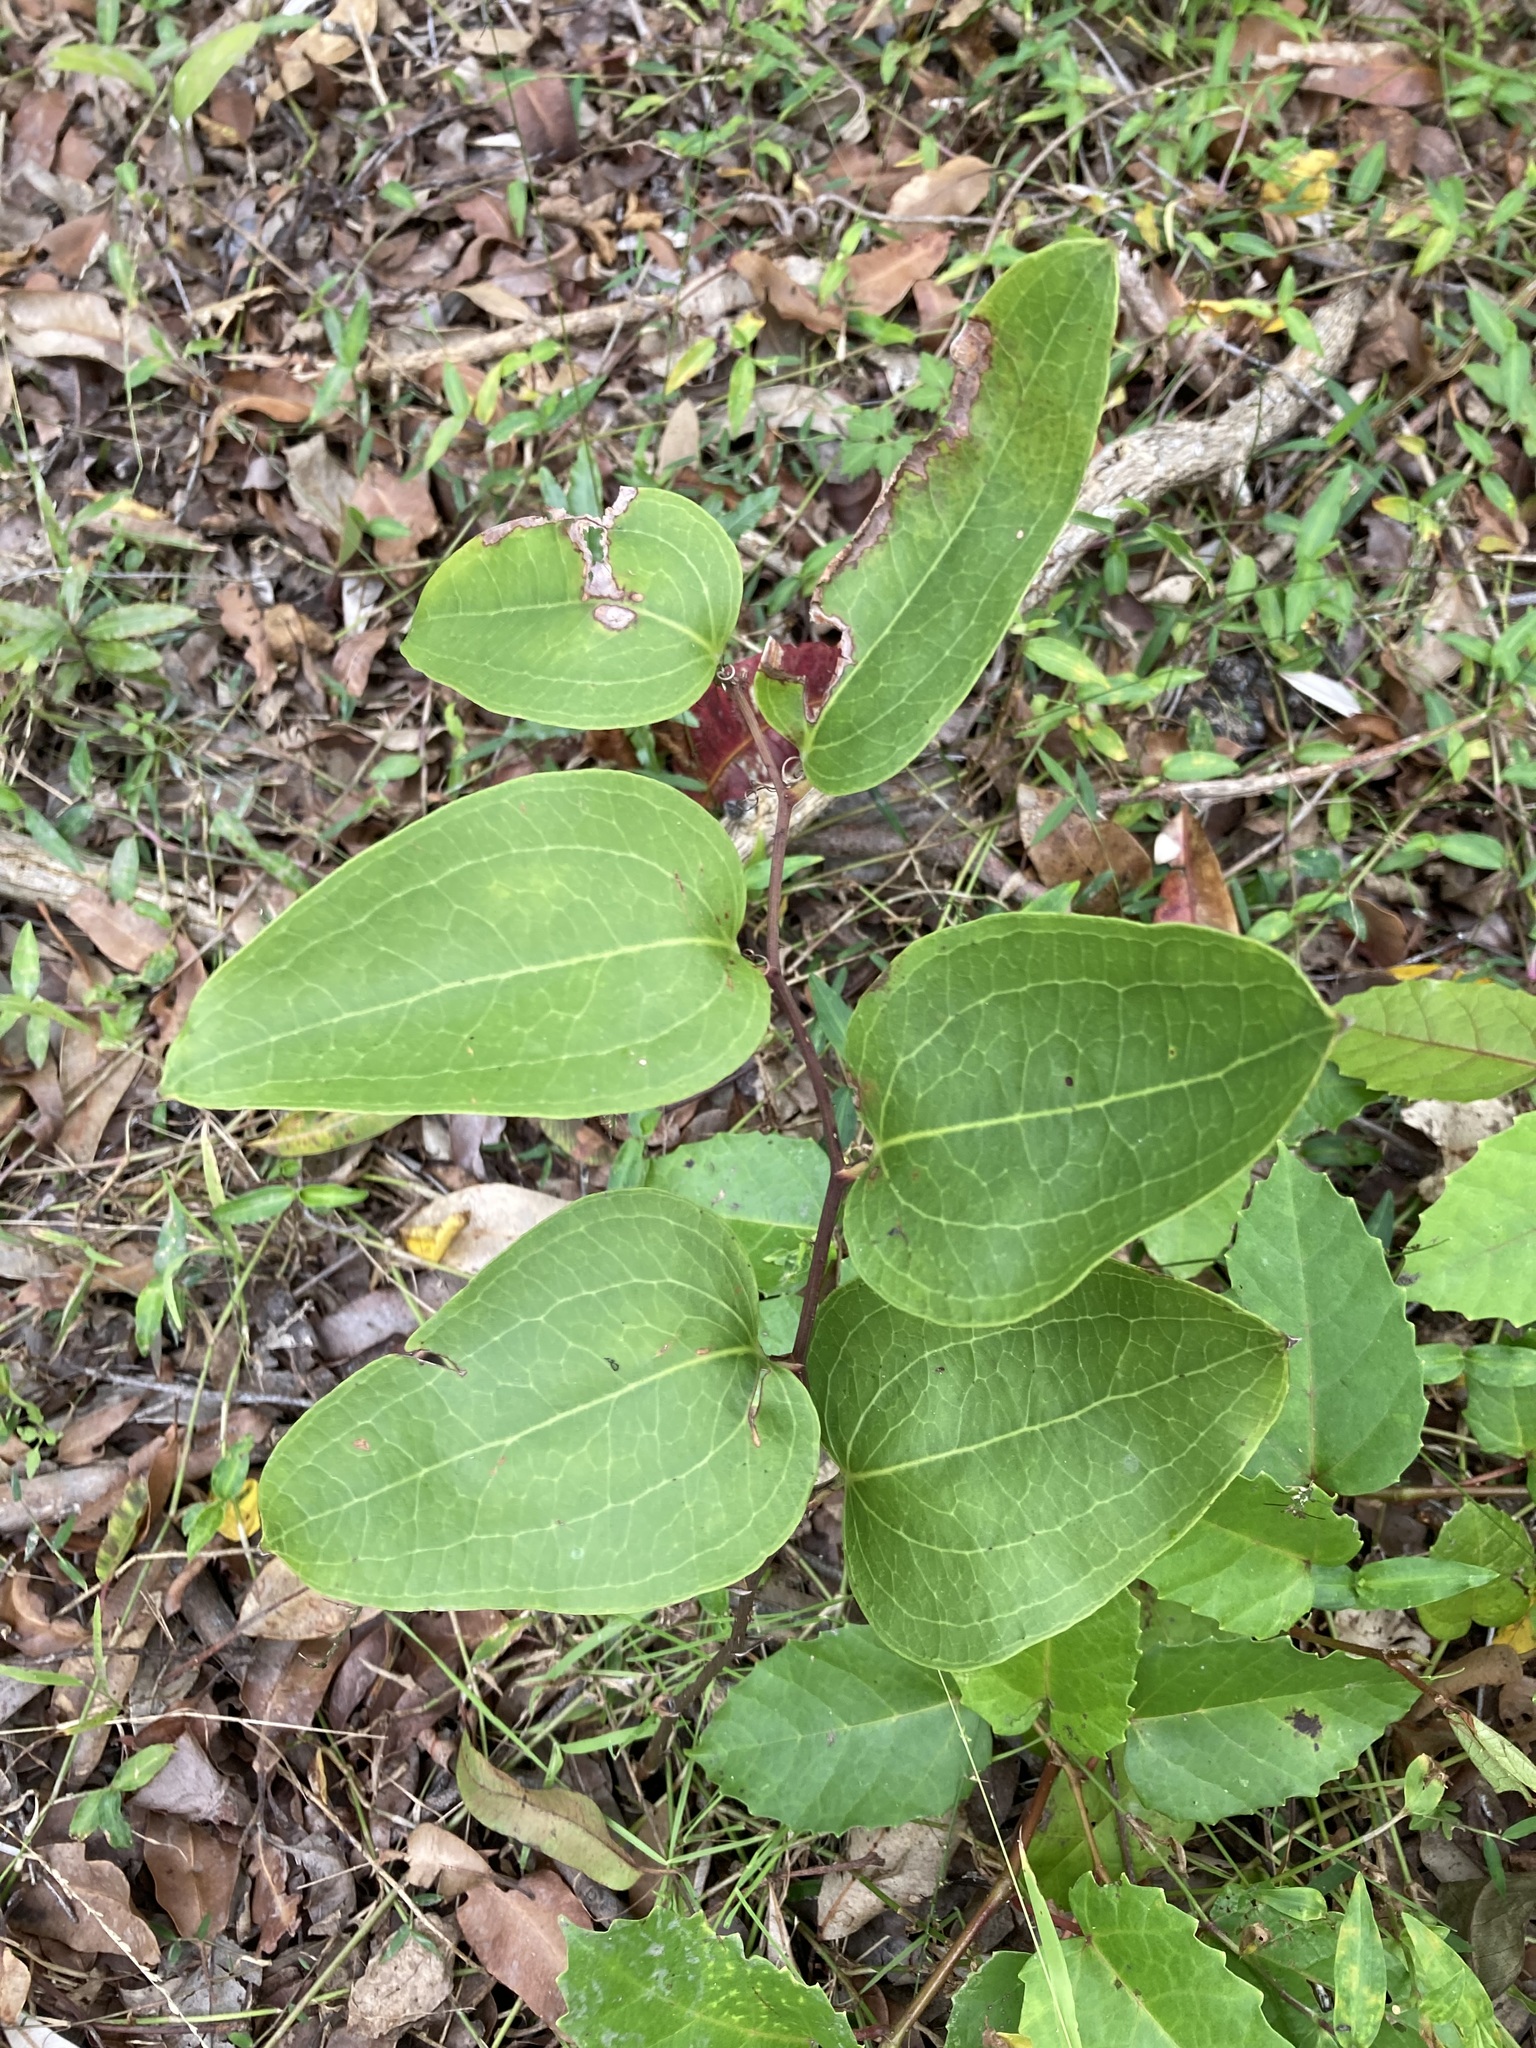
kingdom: Plantae
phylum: Tracheophyta
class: Liliopsida
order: Liliales
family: Smilacaceae
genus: Smilax
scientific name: Smilax australis
